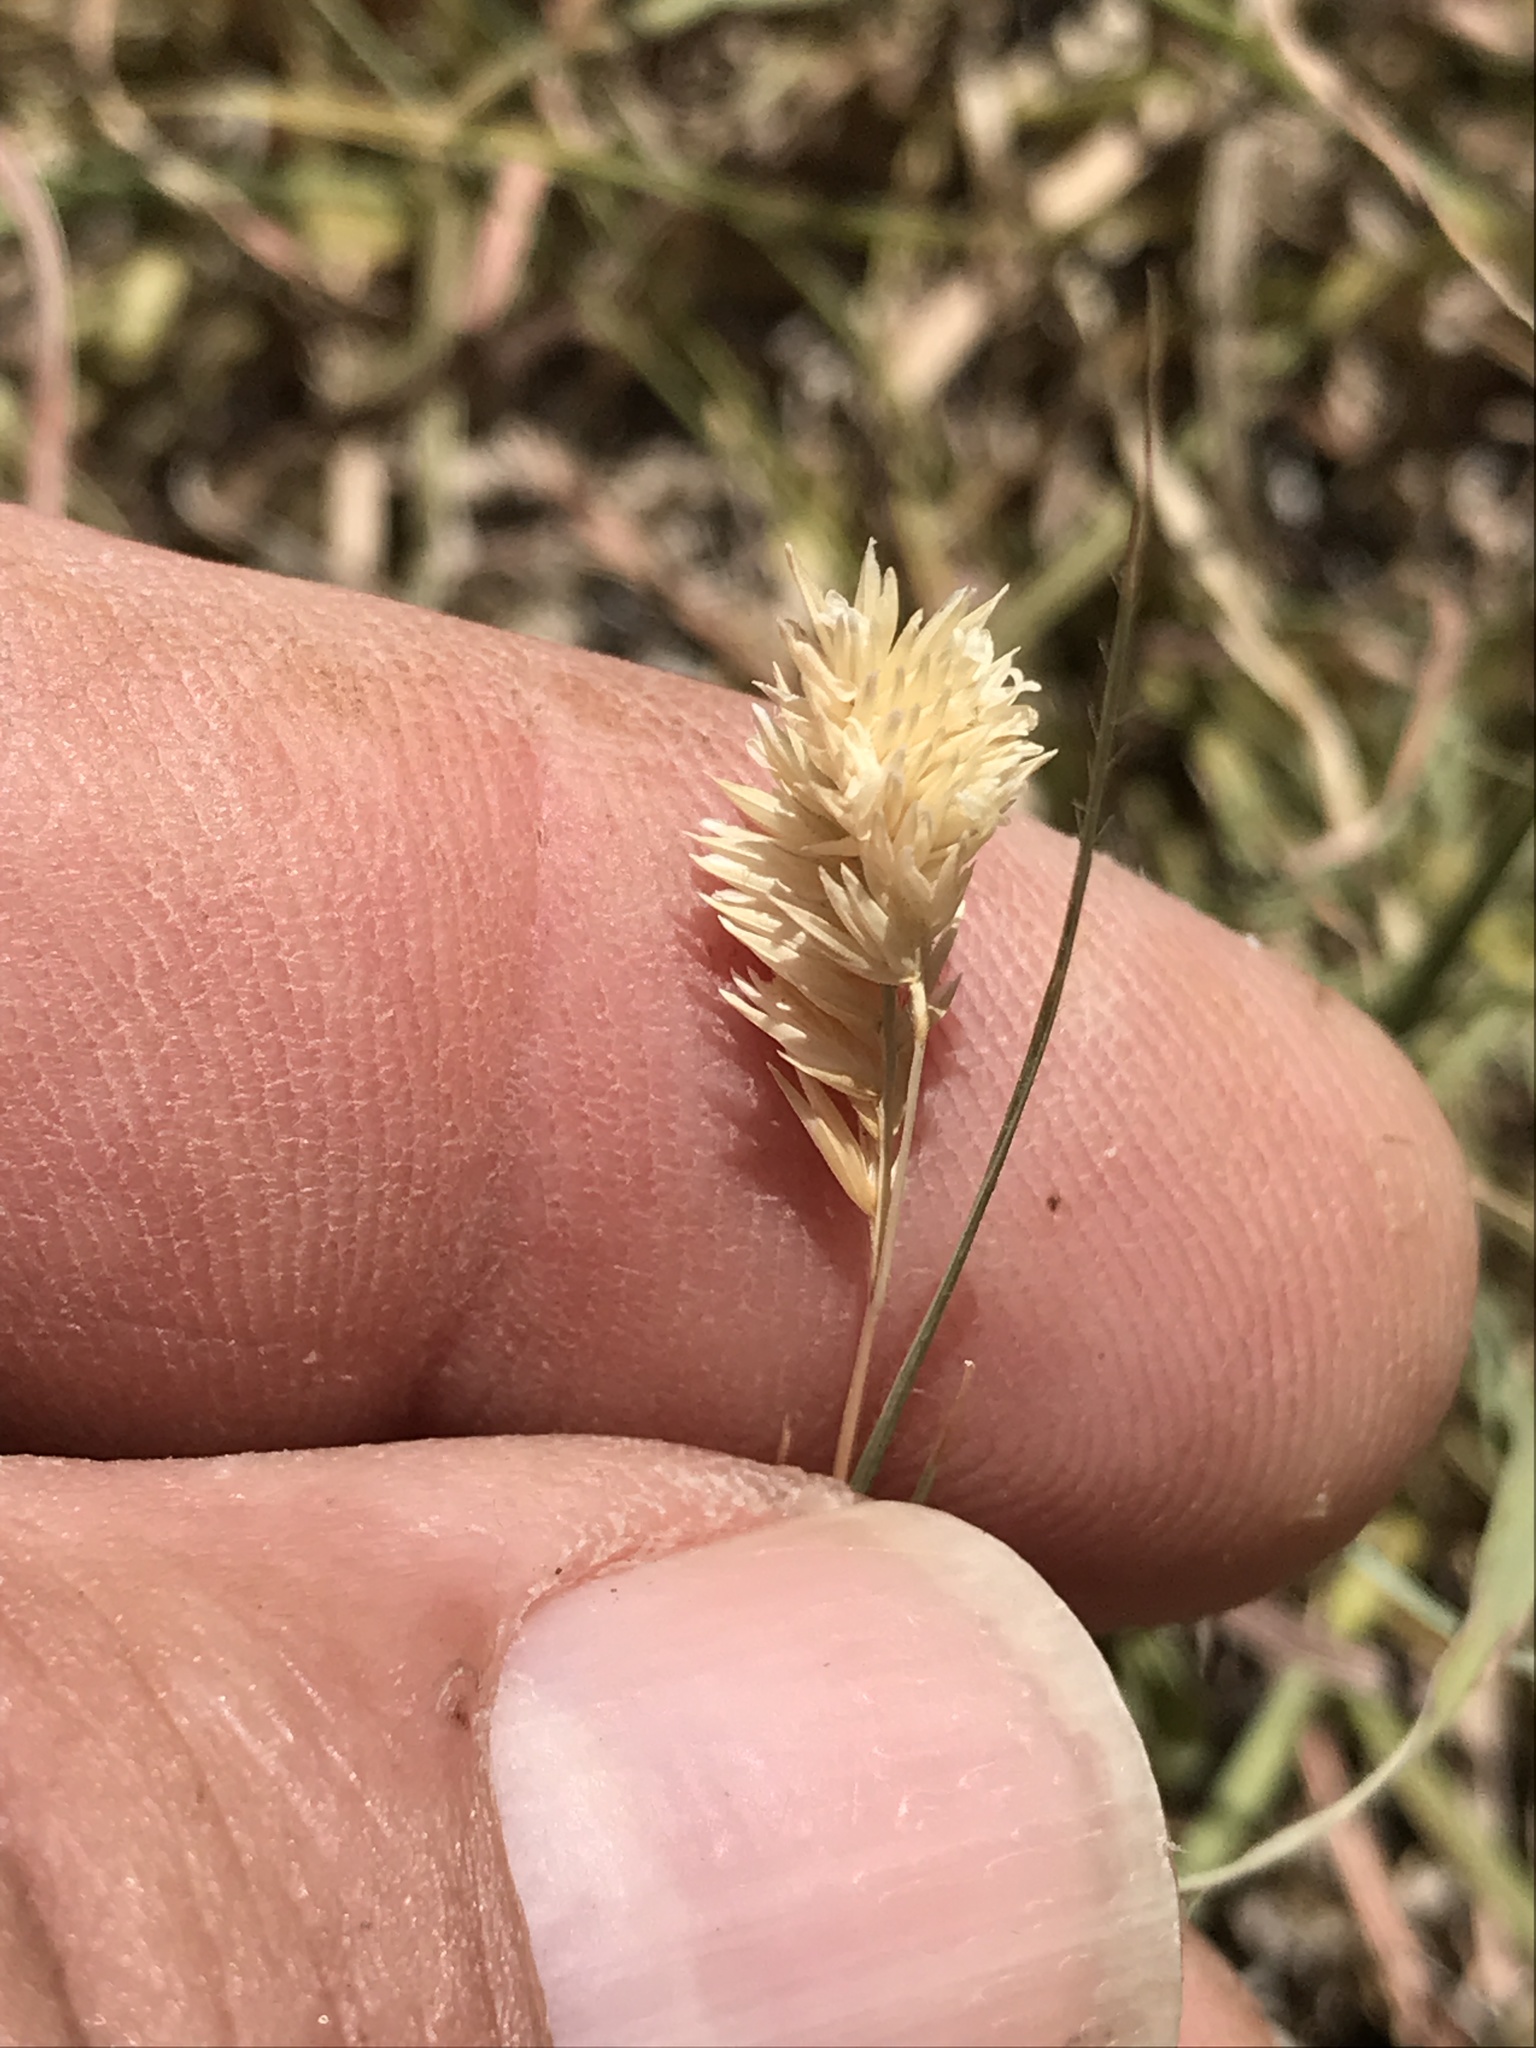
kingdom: Plantae
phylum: Tracheophyta
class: Liliopsida
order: Poales
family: Poaceae
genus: Bouteloua
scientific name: Bouteloua dactyloides
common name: Buffalo grass
